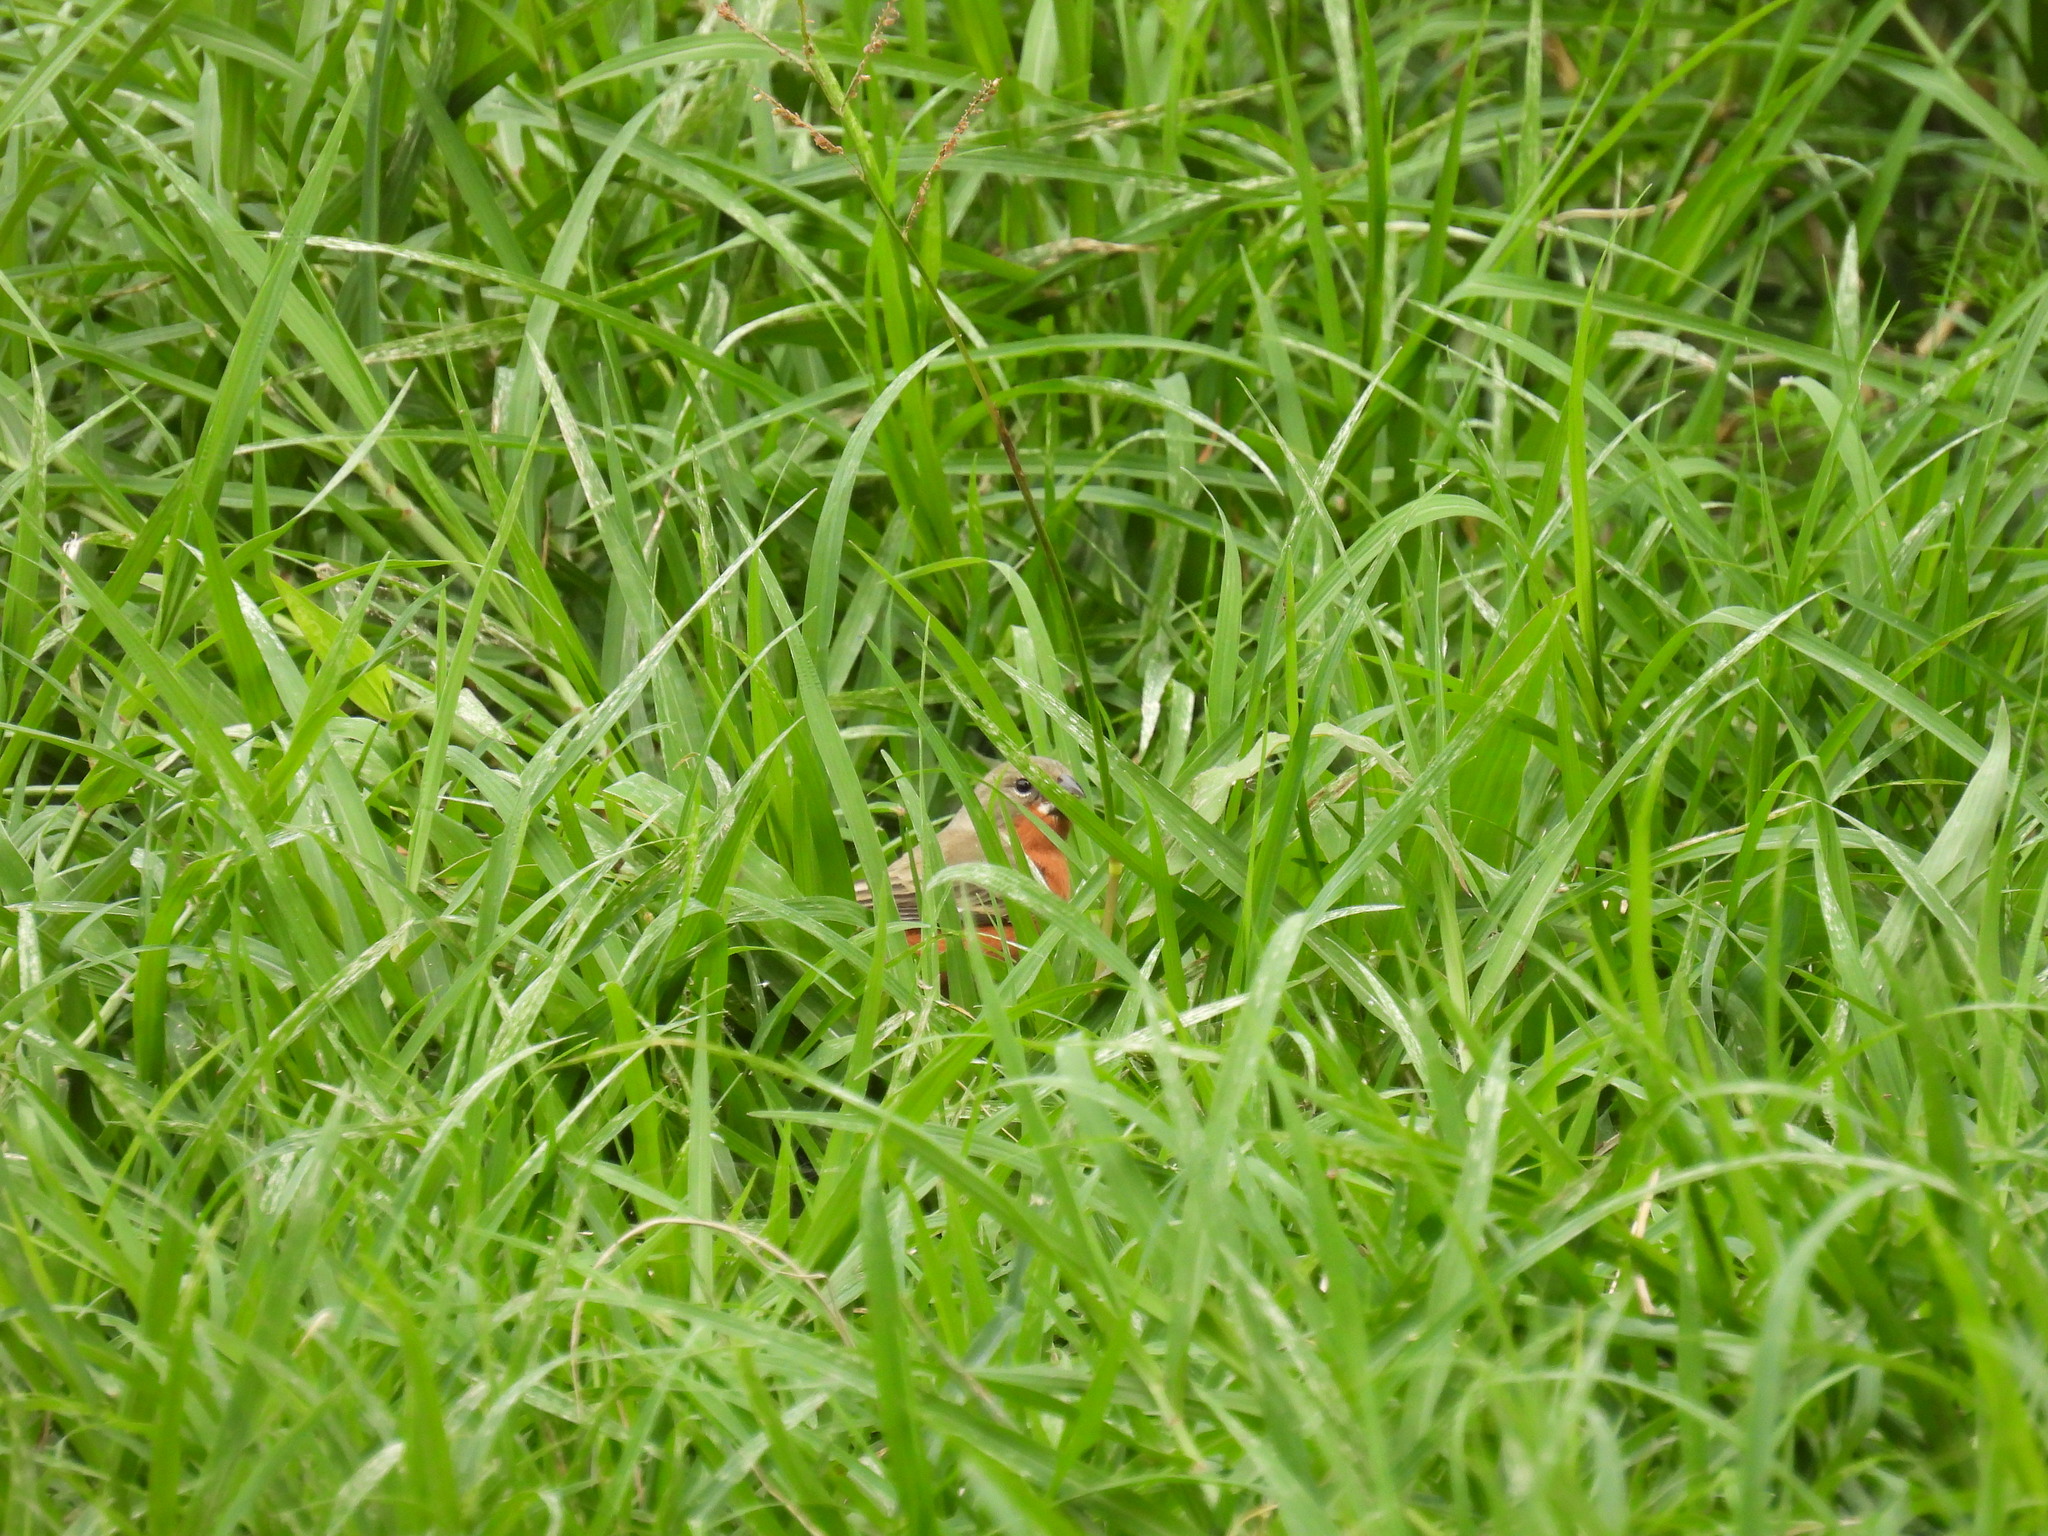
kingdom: Animalia
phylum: Chordata
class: Aves
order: Passeriformes
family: Thraupidae
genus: Sporophila
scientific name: Sporophila minuta
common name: Ruddy-breasted seedeater
